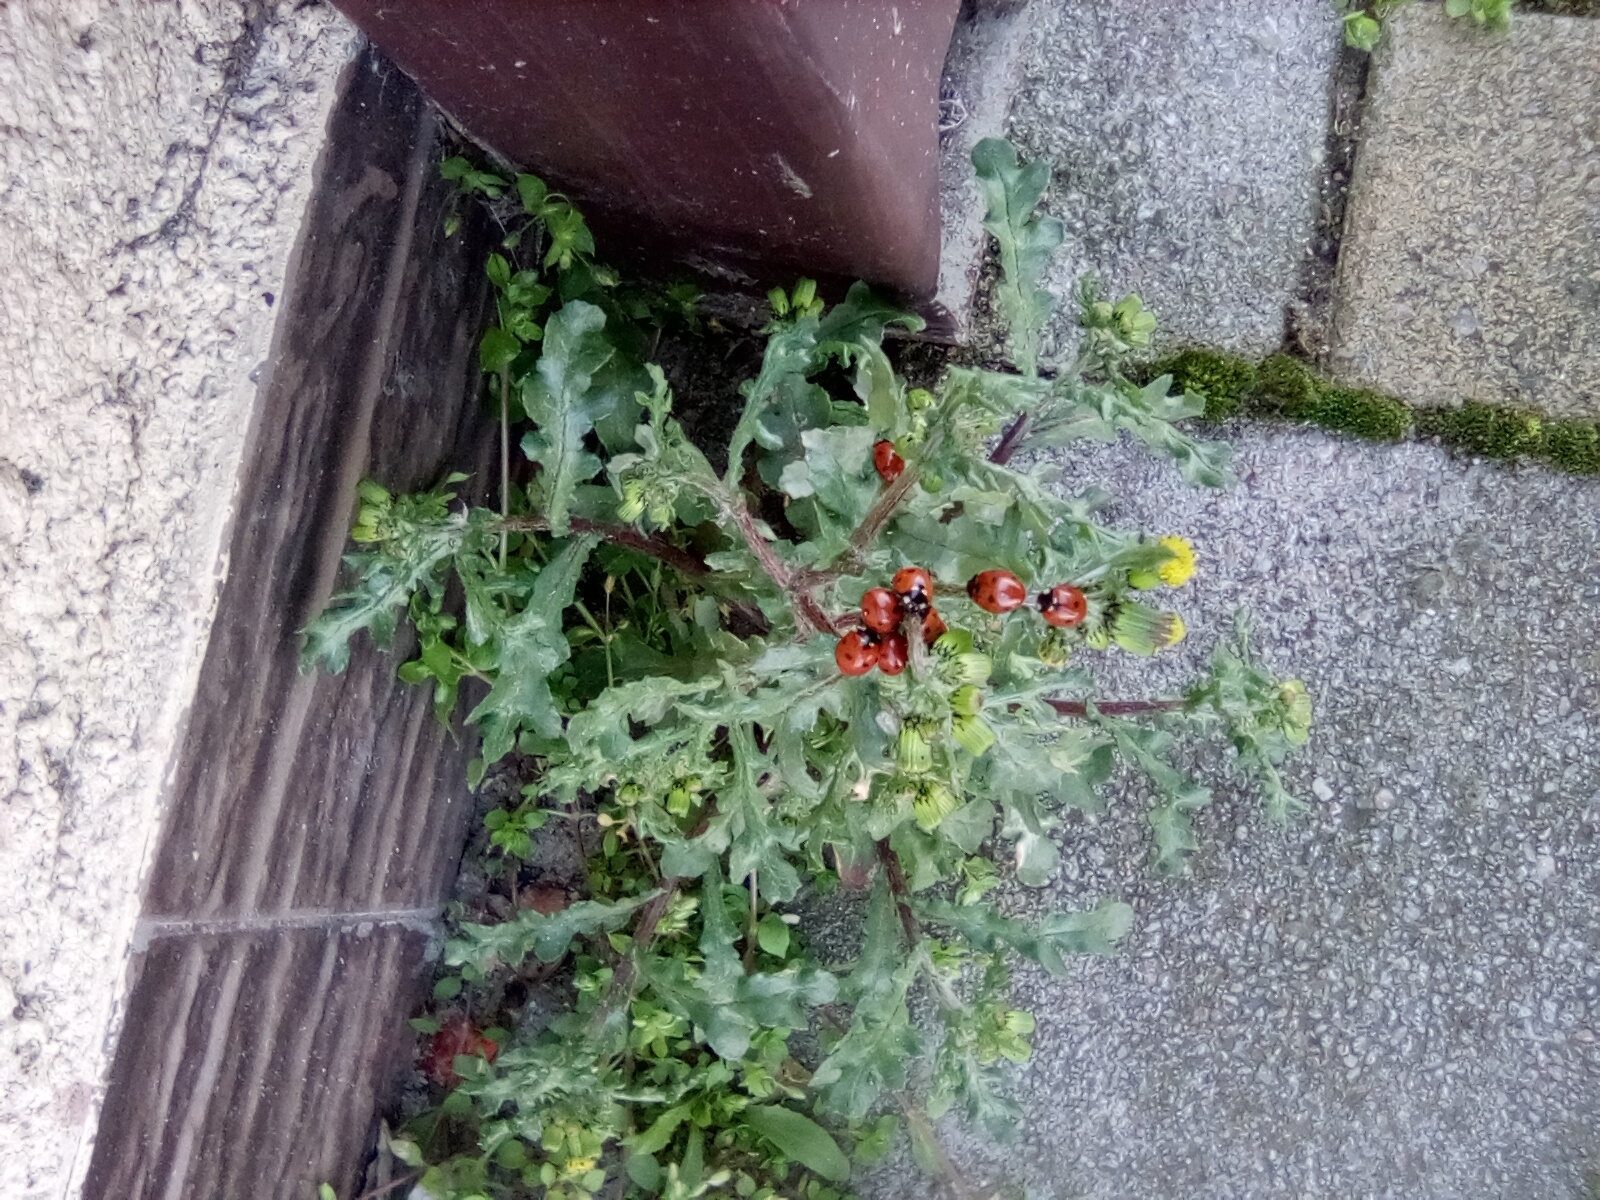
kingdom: Animalia
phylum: Arthropoda
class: Insecta
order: Coleoptera
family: Coccinellidae
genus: Coccinella
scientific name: Coccinella septempunctata
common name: Sevenspotted lady beetle
